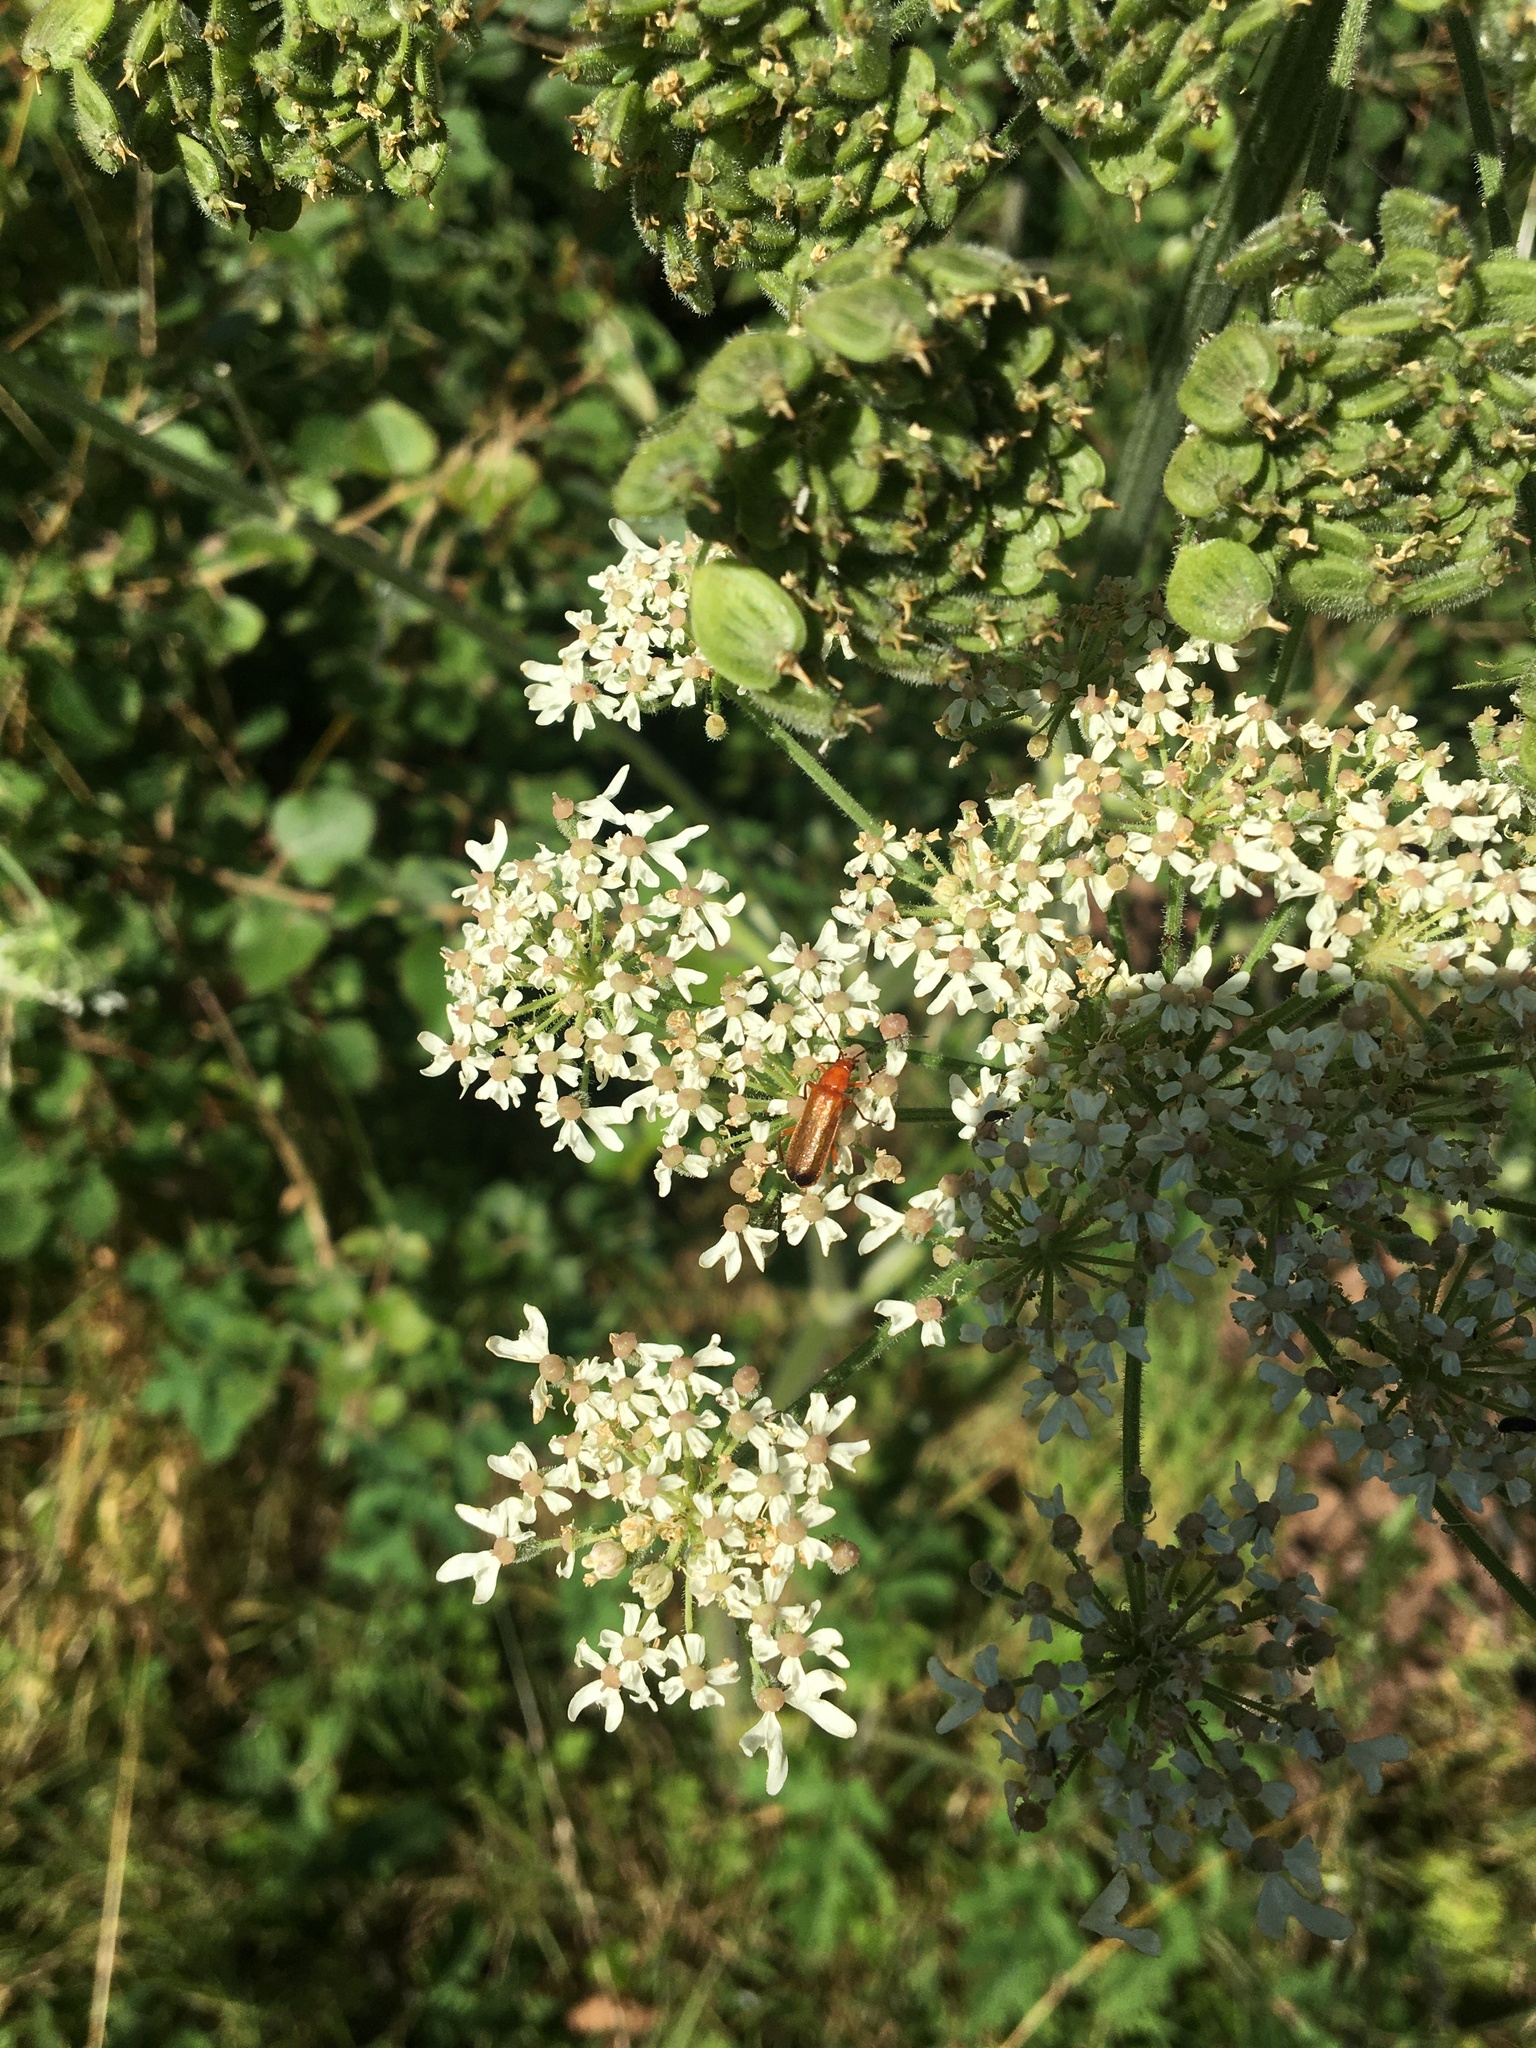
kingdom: Animalia
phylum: Arthropoda
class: Insecta
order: Coleoptera
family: Cantharidae
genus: Rhagonycha
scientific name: Rhagonycha fulva
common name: Common red soldier beetle
